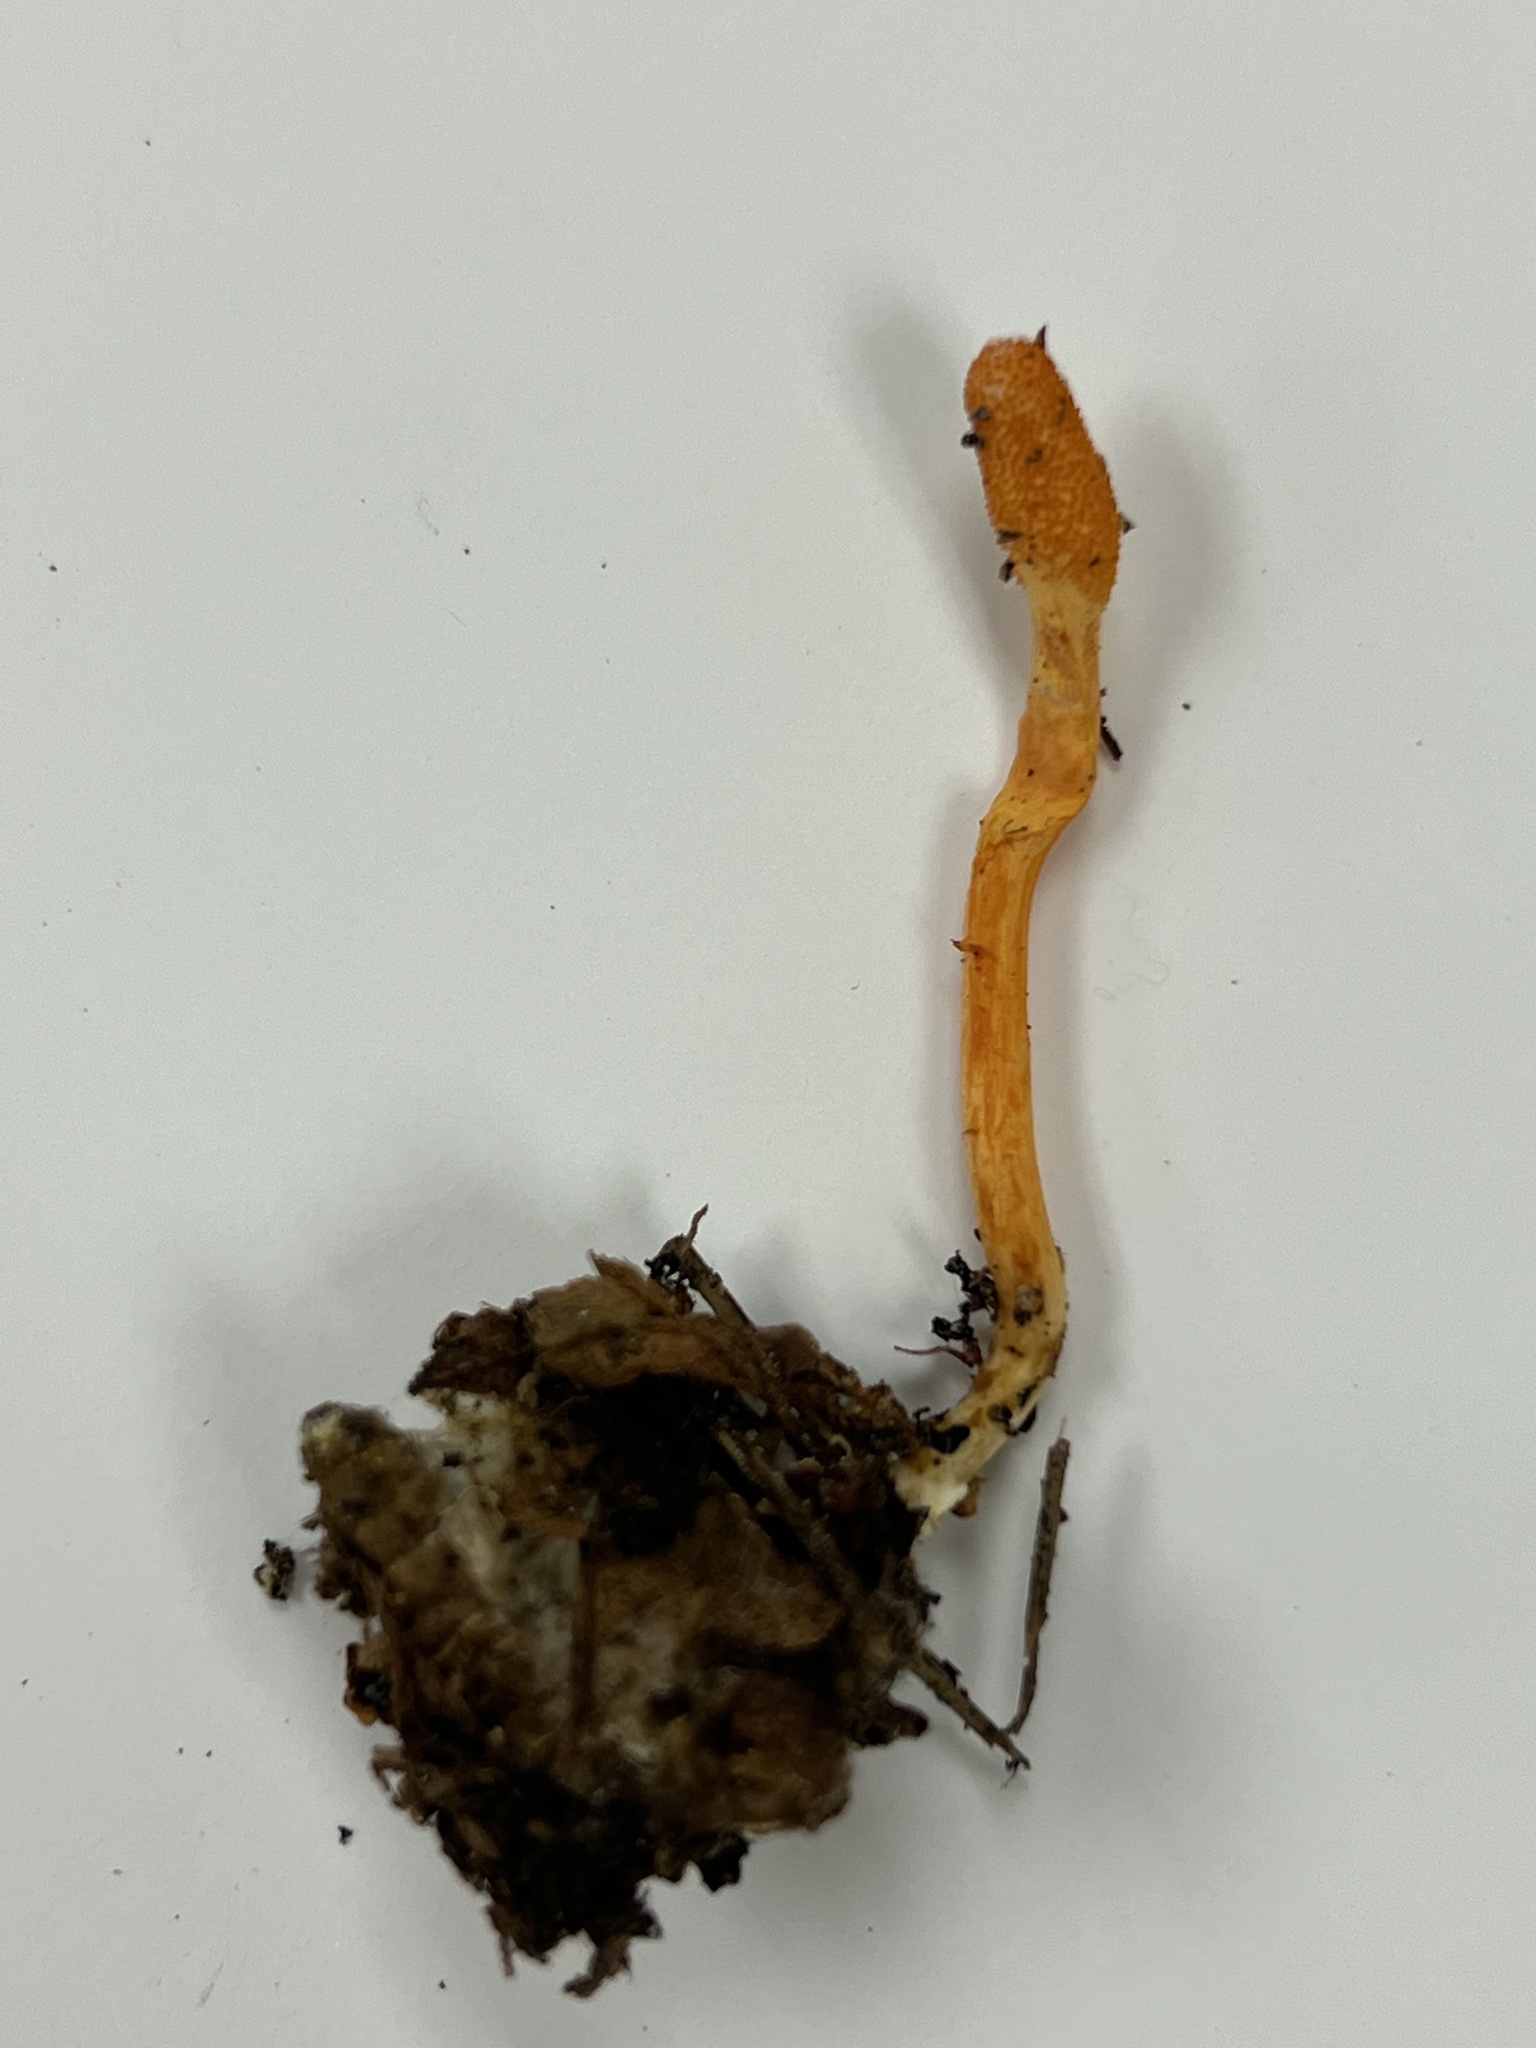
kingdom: Fungi
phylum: Ascomycota
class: Sordariomycetes
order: Hypocreales
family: Cordycipitaceae
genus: Cordyceps
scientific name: Cordyceps militaris
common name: Scarlet caterpillar fungus
